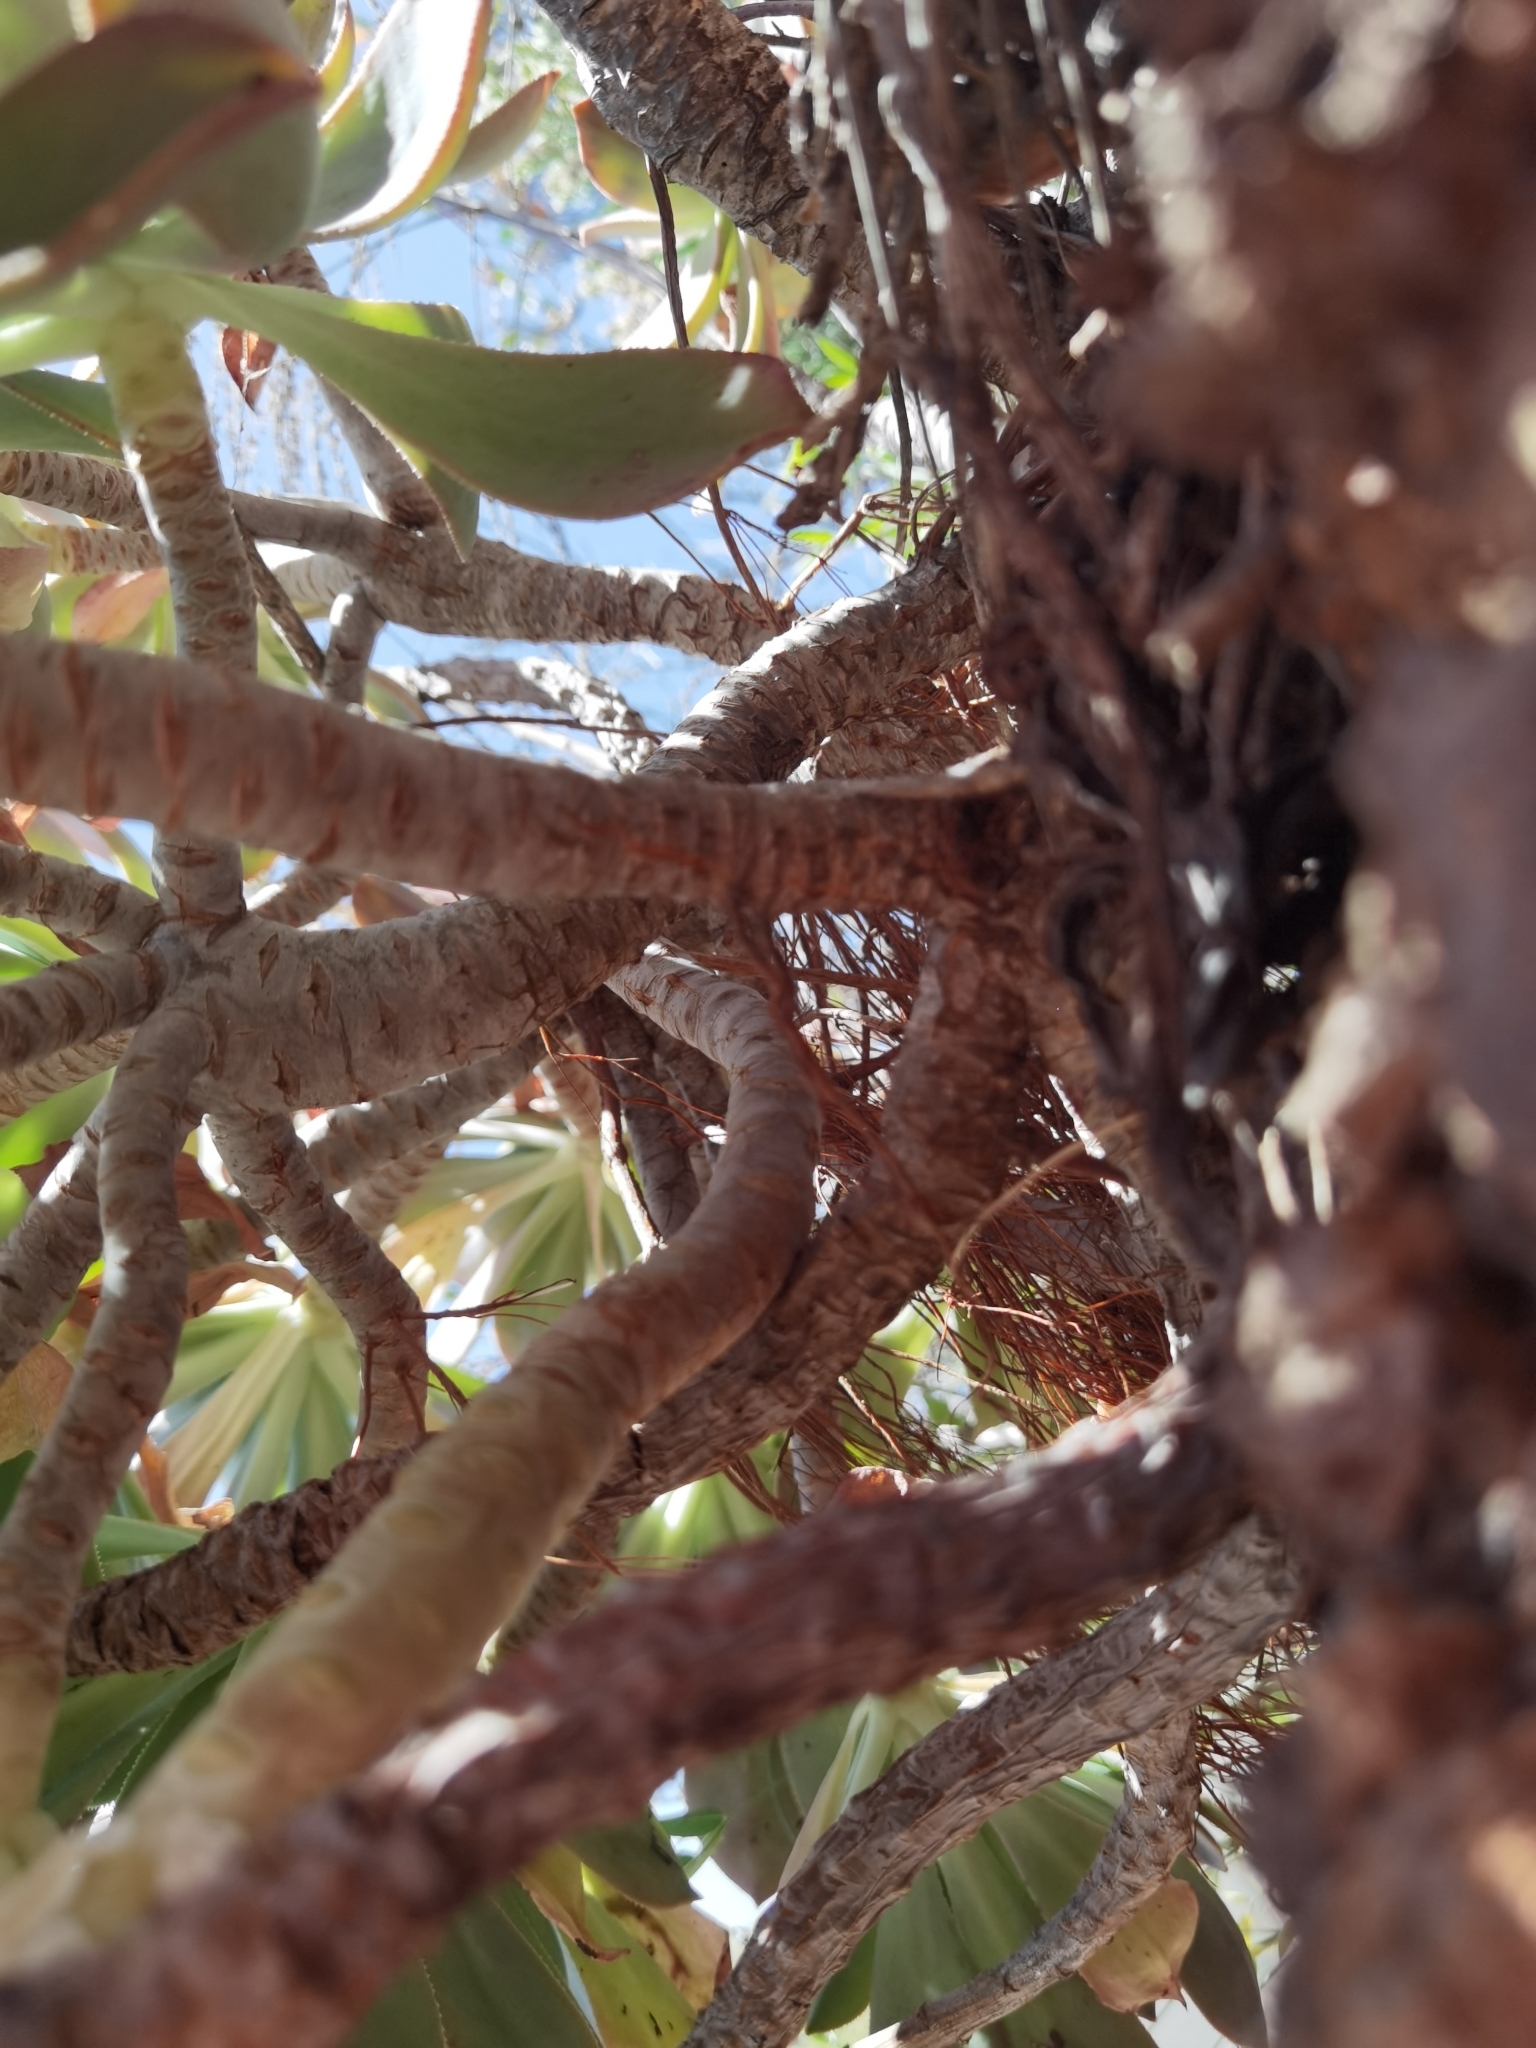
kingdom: Plantae
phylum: Tracheophyta
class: Magnoliopsida
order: Saxifragales
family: Crassulaceae
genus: Aeonium
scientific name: Aeonium davidbramwellii
